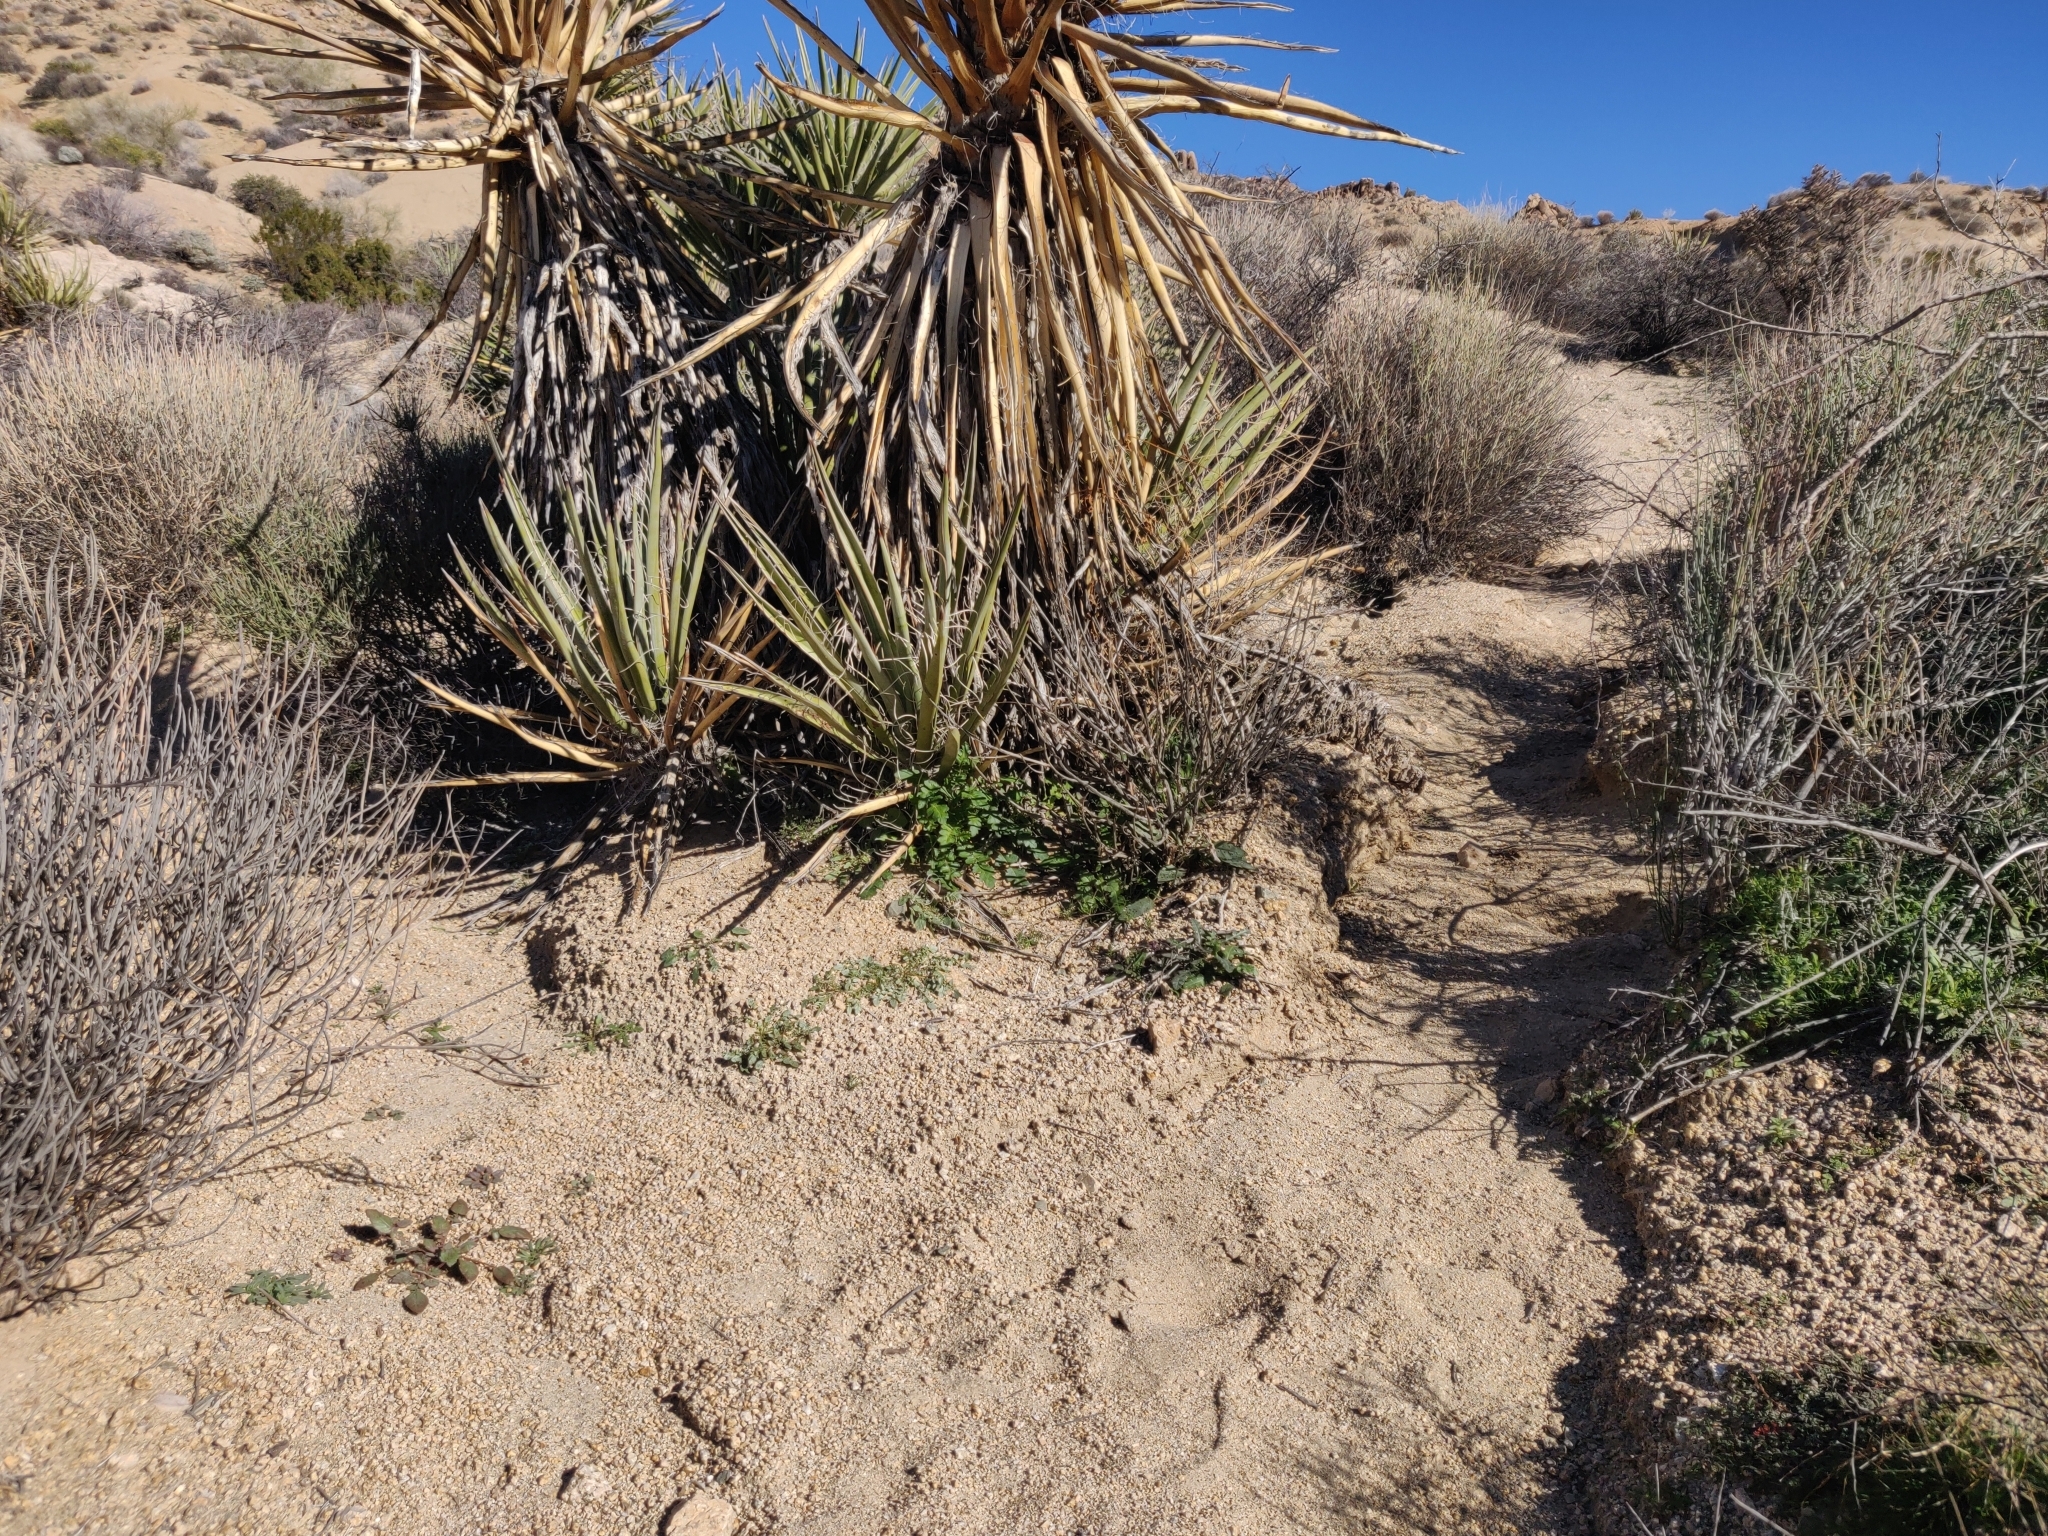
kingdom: Animalia
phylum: Chordata
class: Squamata
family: Phrynosomatidae
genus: Uta
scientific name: Uta stansburiana
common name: Side-blotched lizard
